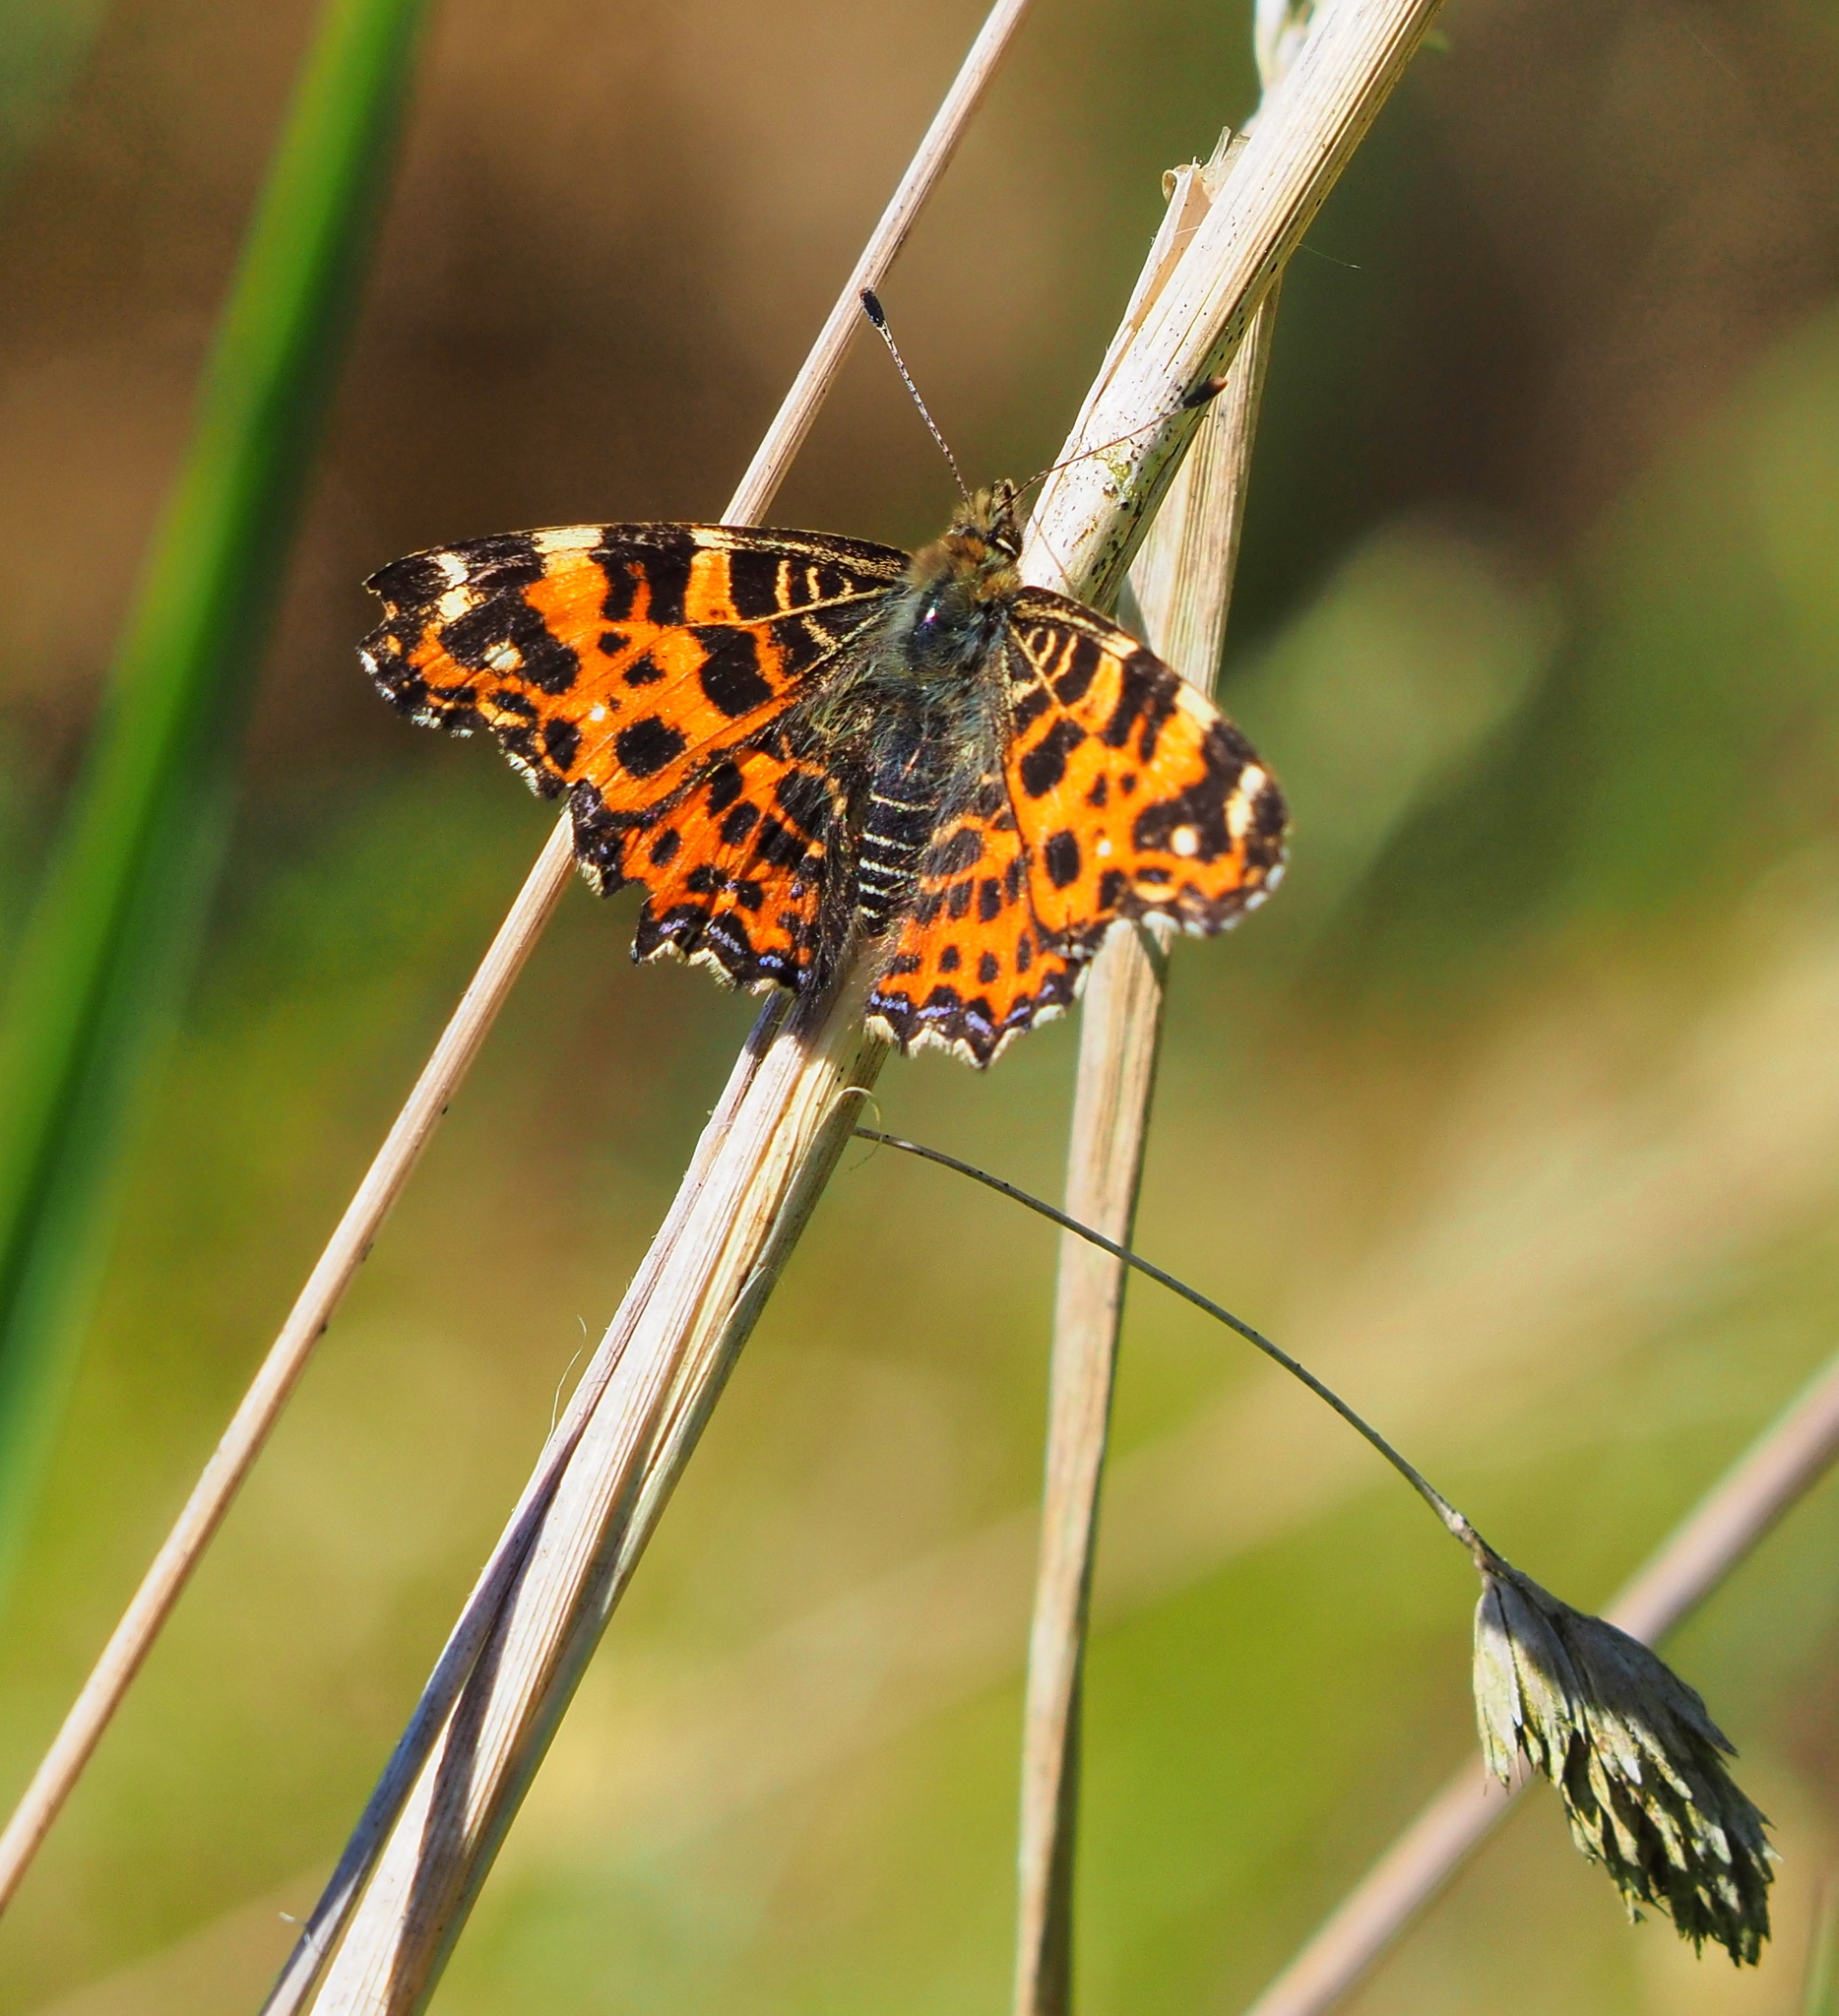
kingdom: Animalia
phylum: Arthropoda
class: Insecta
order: Lepidoptera
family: Nymphalidae
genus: Araschnia
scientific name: Araschnia levana
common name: Map butterfly
